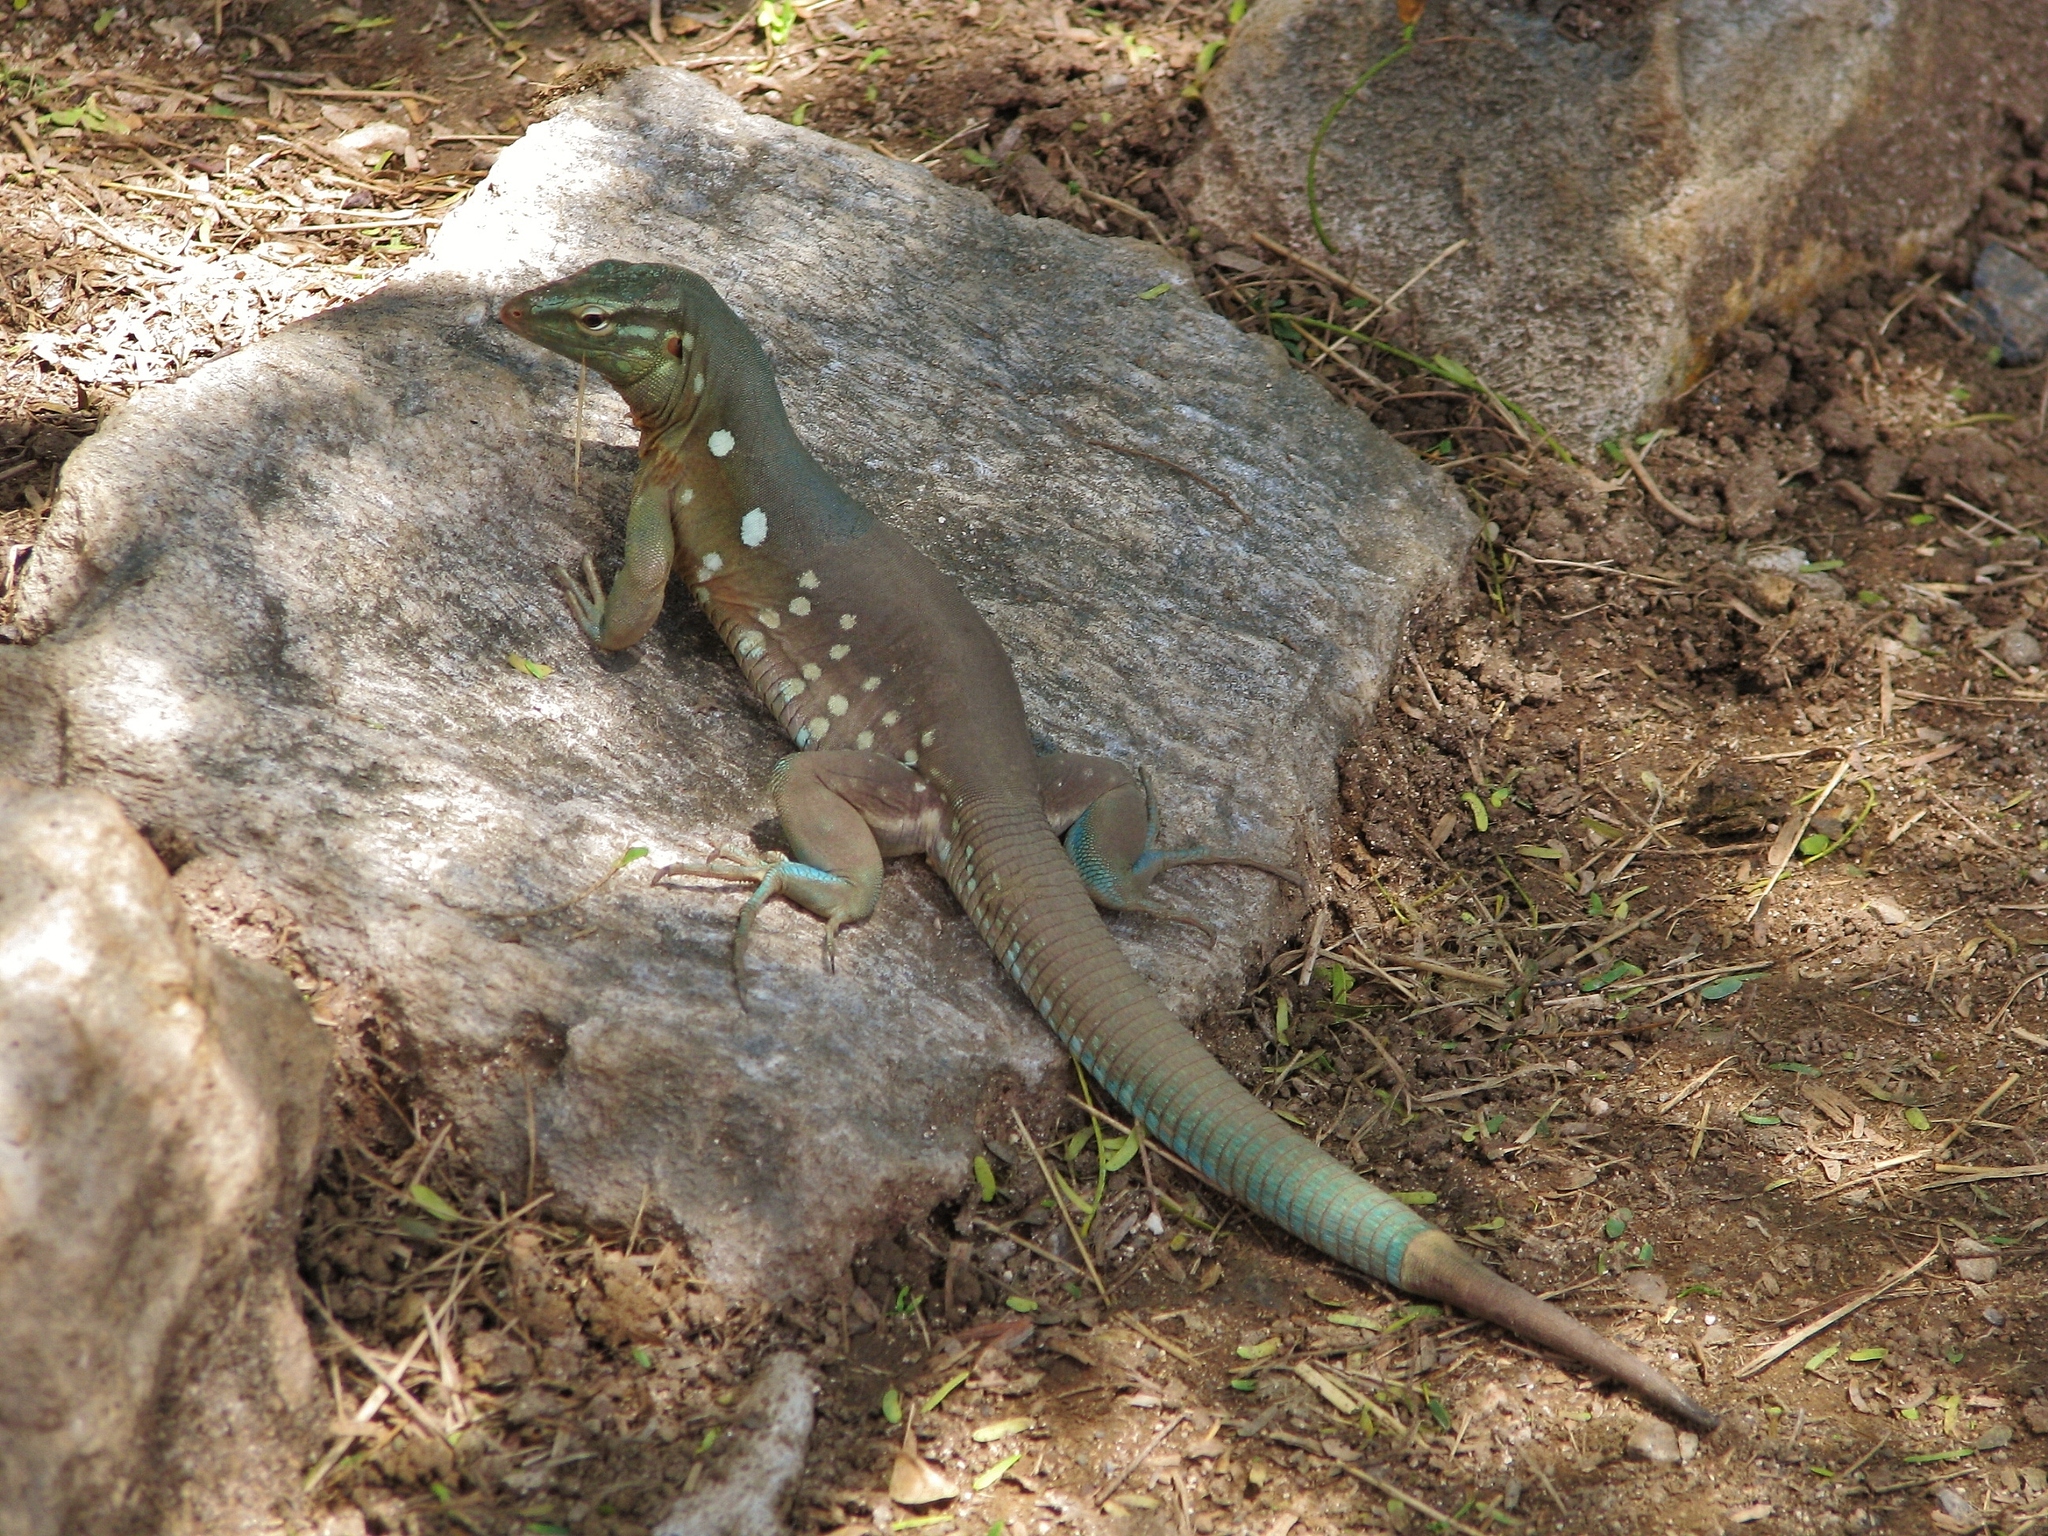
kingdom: Animalia
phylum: Chordata
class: Squamata
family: Teiidae
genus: Cnemidophorus
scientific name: Cnemidophorus murinus
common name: Laurent's whiptail
